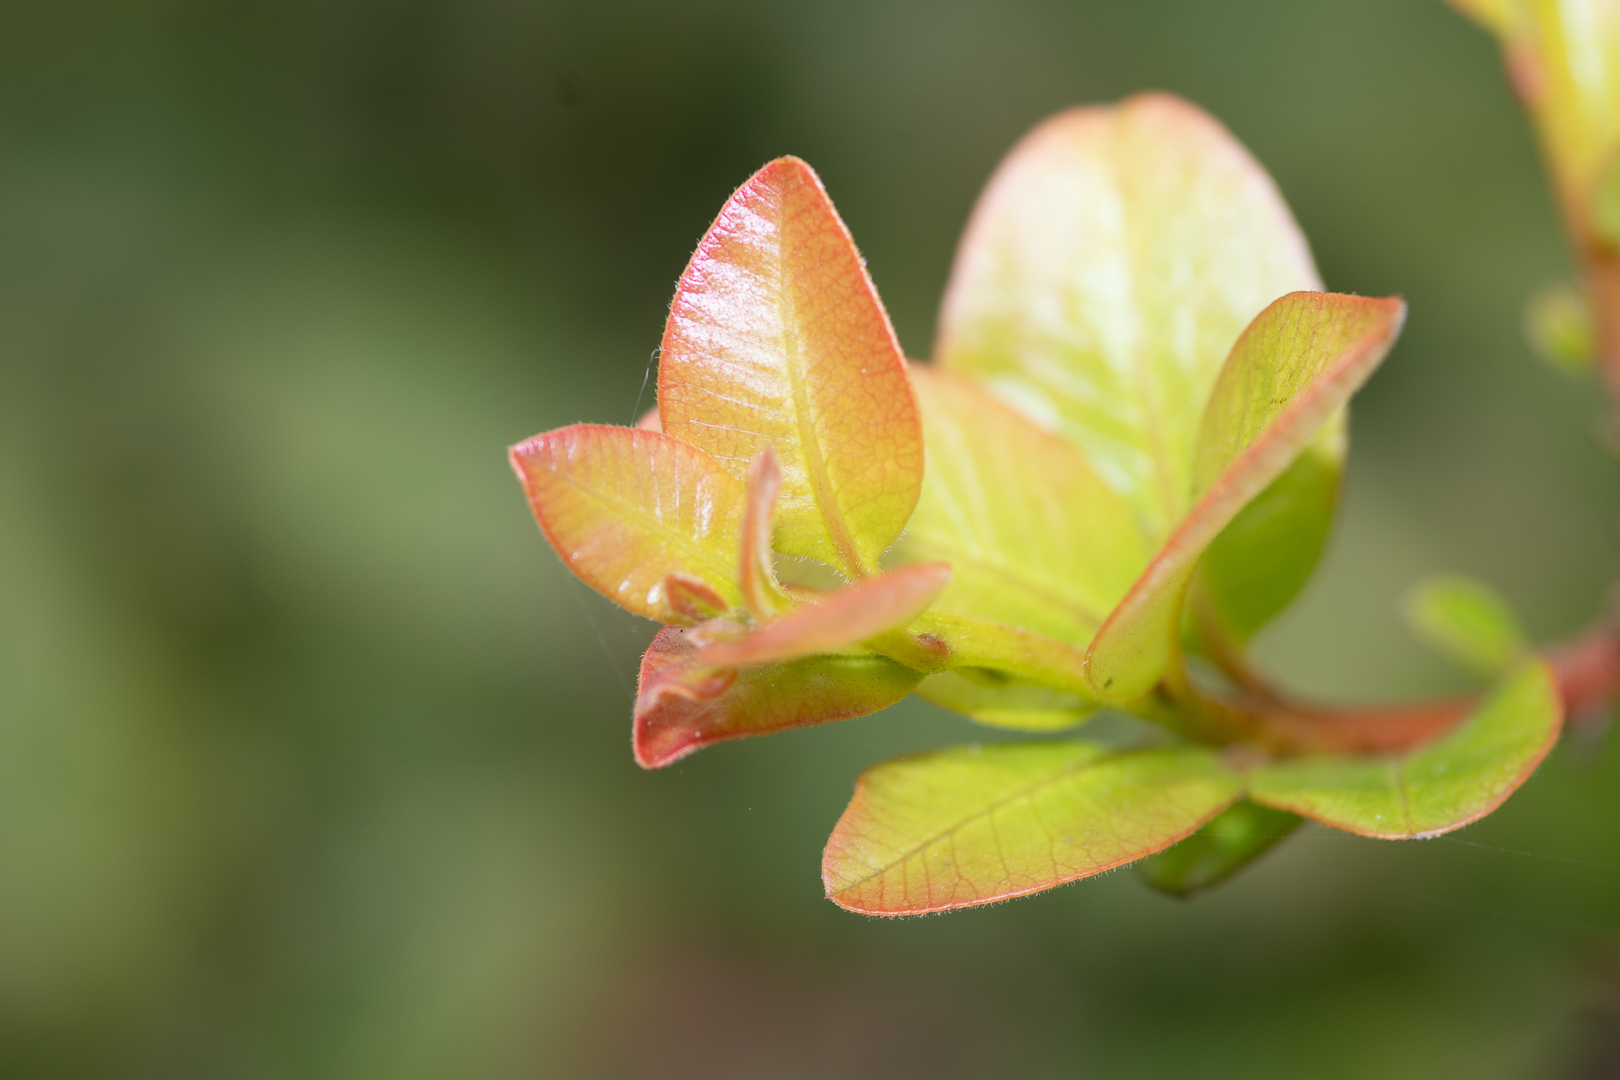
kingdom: Plantae
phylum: Tracheophyta
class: Magnoliopsida
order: Sapindales
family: Anacardiaceae
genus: Lithraea
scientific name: Lithraea caustica
